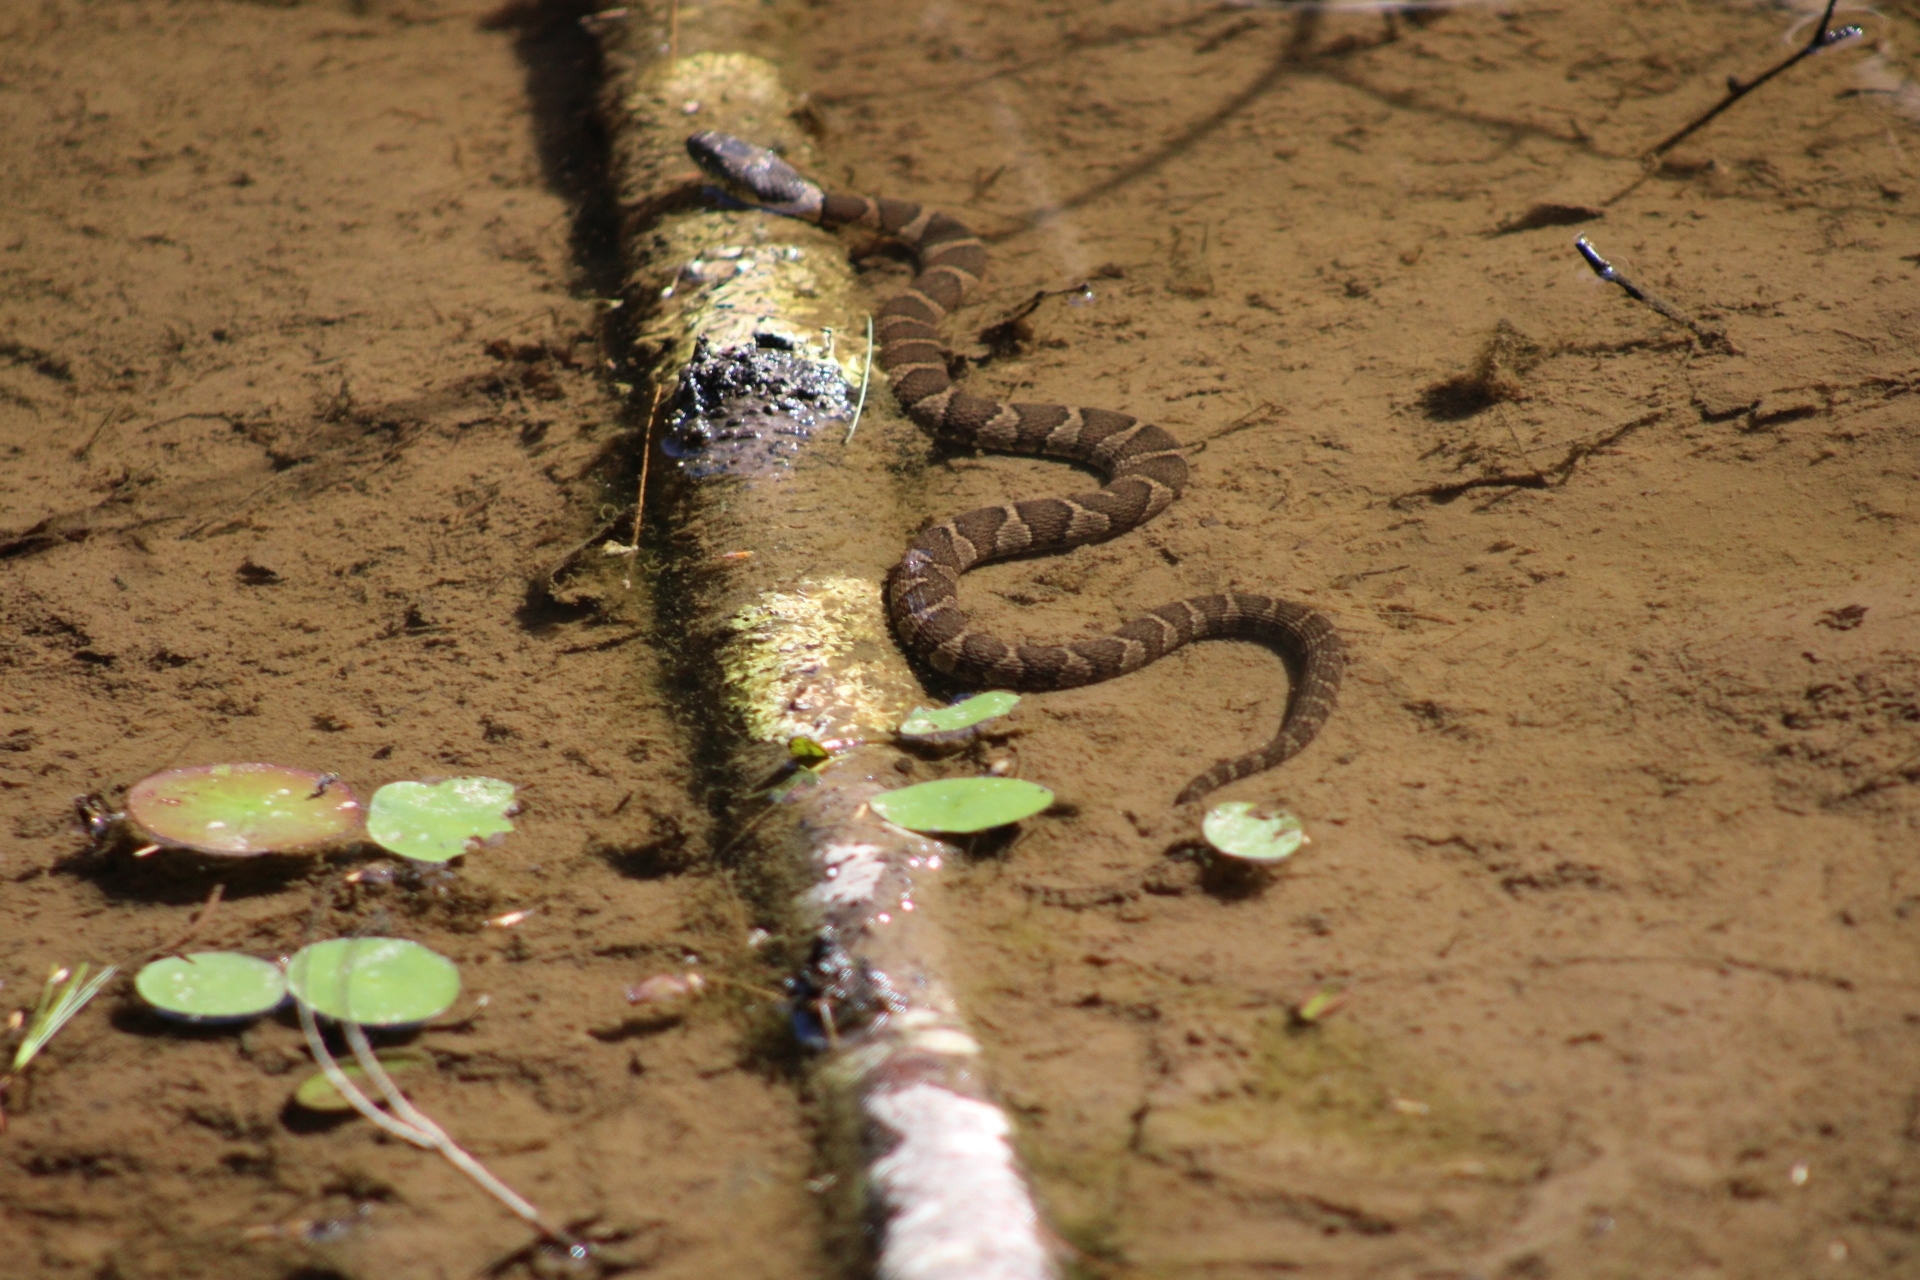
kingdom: Animalia
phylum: Chordata
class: Squamata
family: Colubridae
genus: Nerodia
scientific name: Nerodia sipedon
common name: Northern water snake
